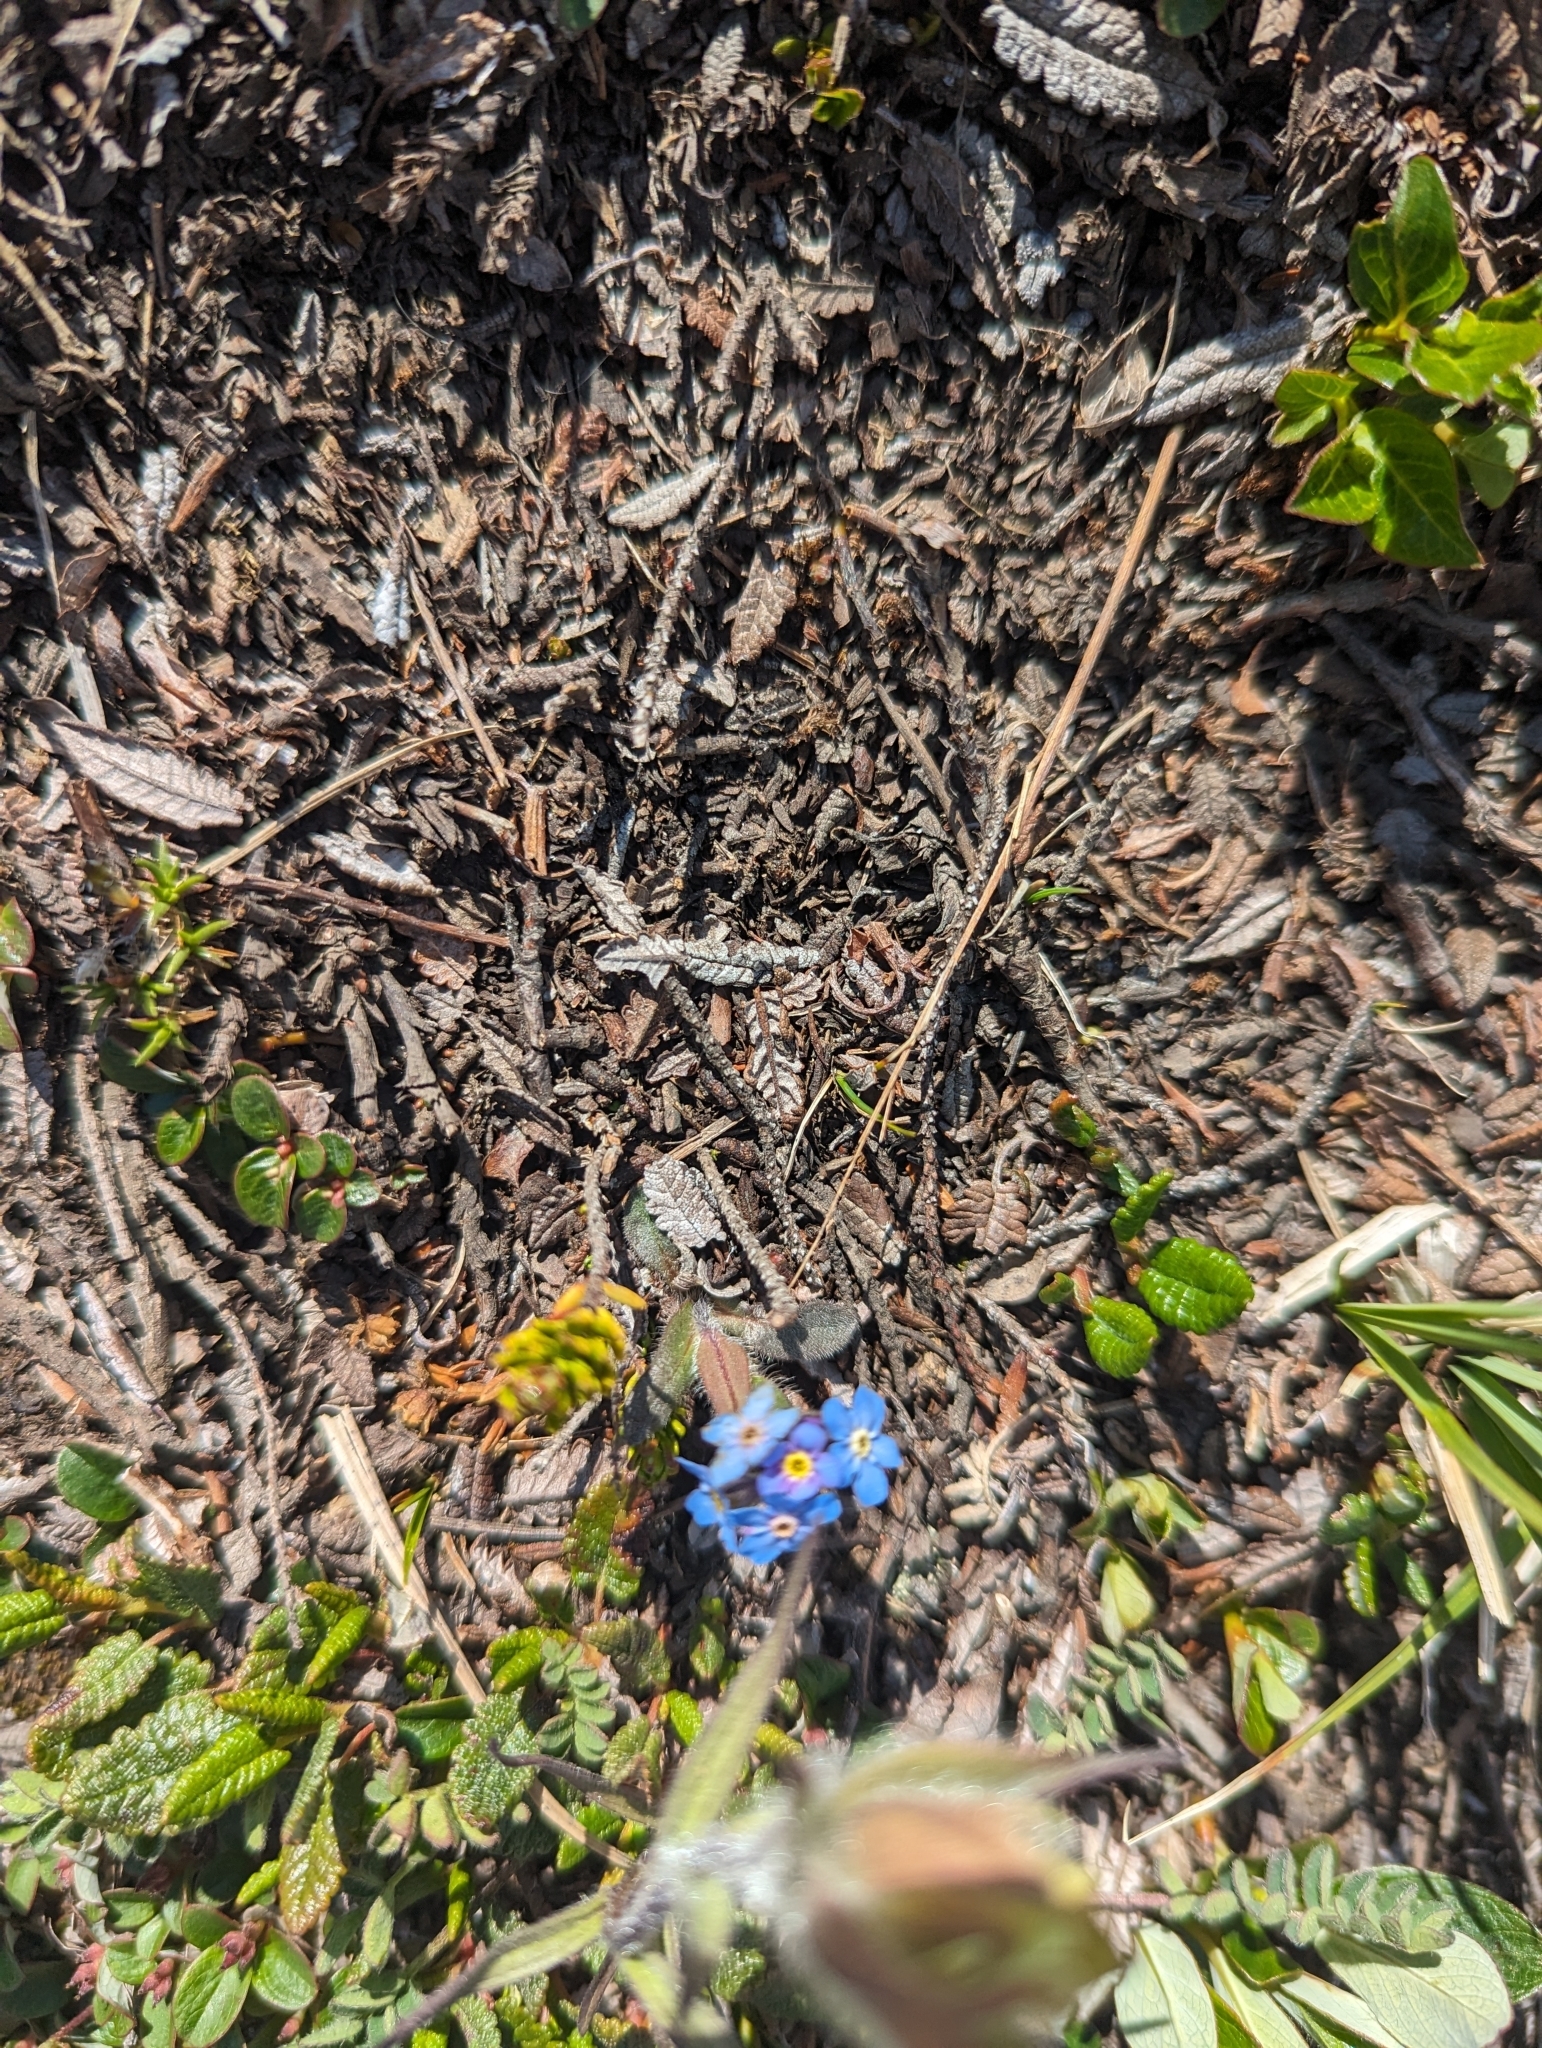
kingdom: Plantae
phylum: Tracheophyta
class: Magnoliopsida
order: Boraginales
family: Boraginaceae
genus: Myosotis
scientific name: Myosotis asiatica
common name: Asian forget-me-not
